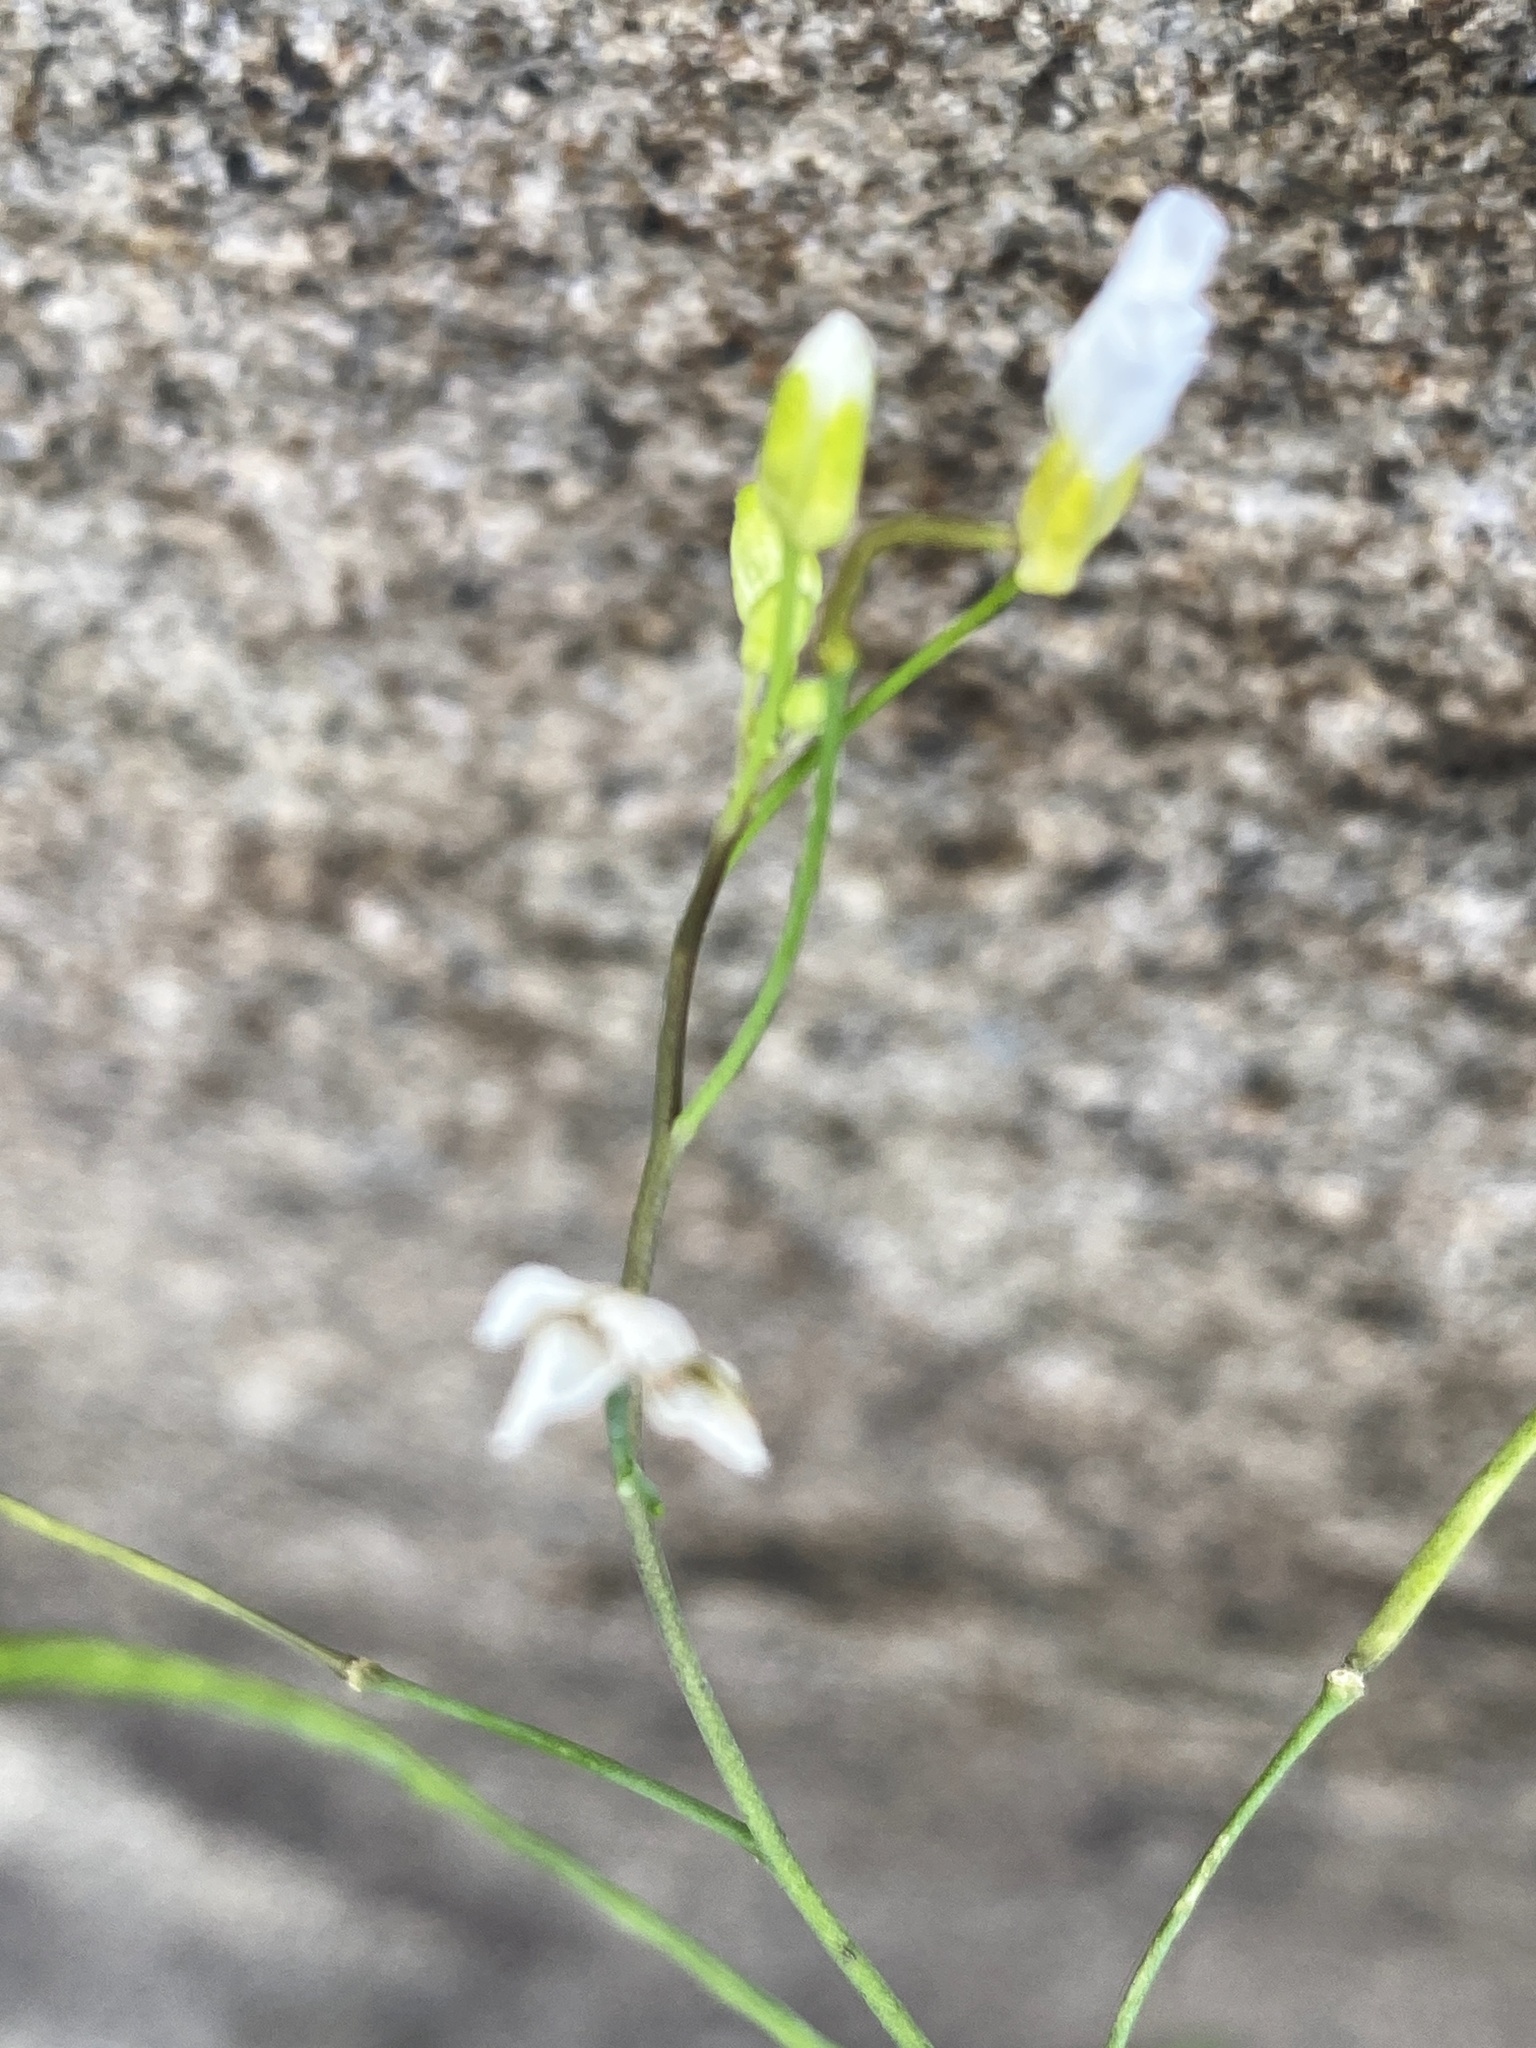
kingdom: Plantae
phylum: Tracheophyta
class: Magnoliopsida
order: Brassicales
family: Brassicaceae
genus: Arabidopsis
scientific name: Arabidopsis lyrata
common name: Lyrate rockcress
